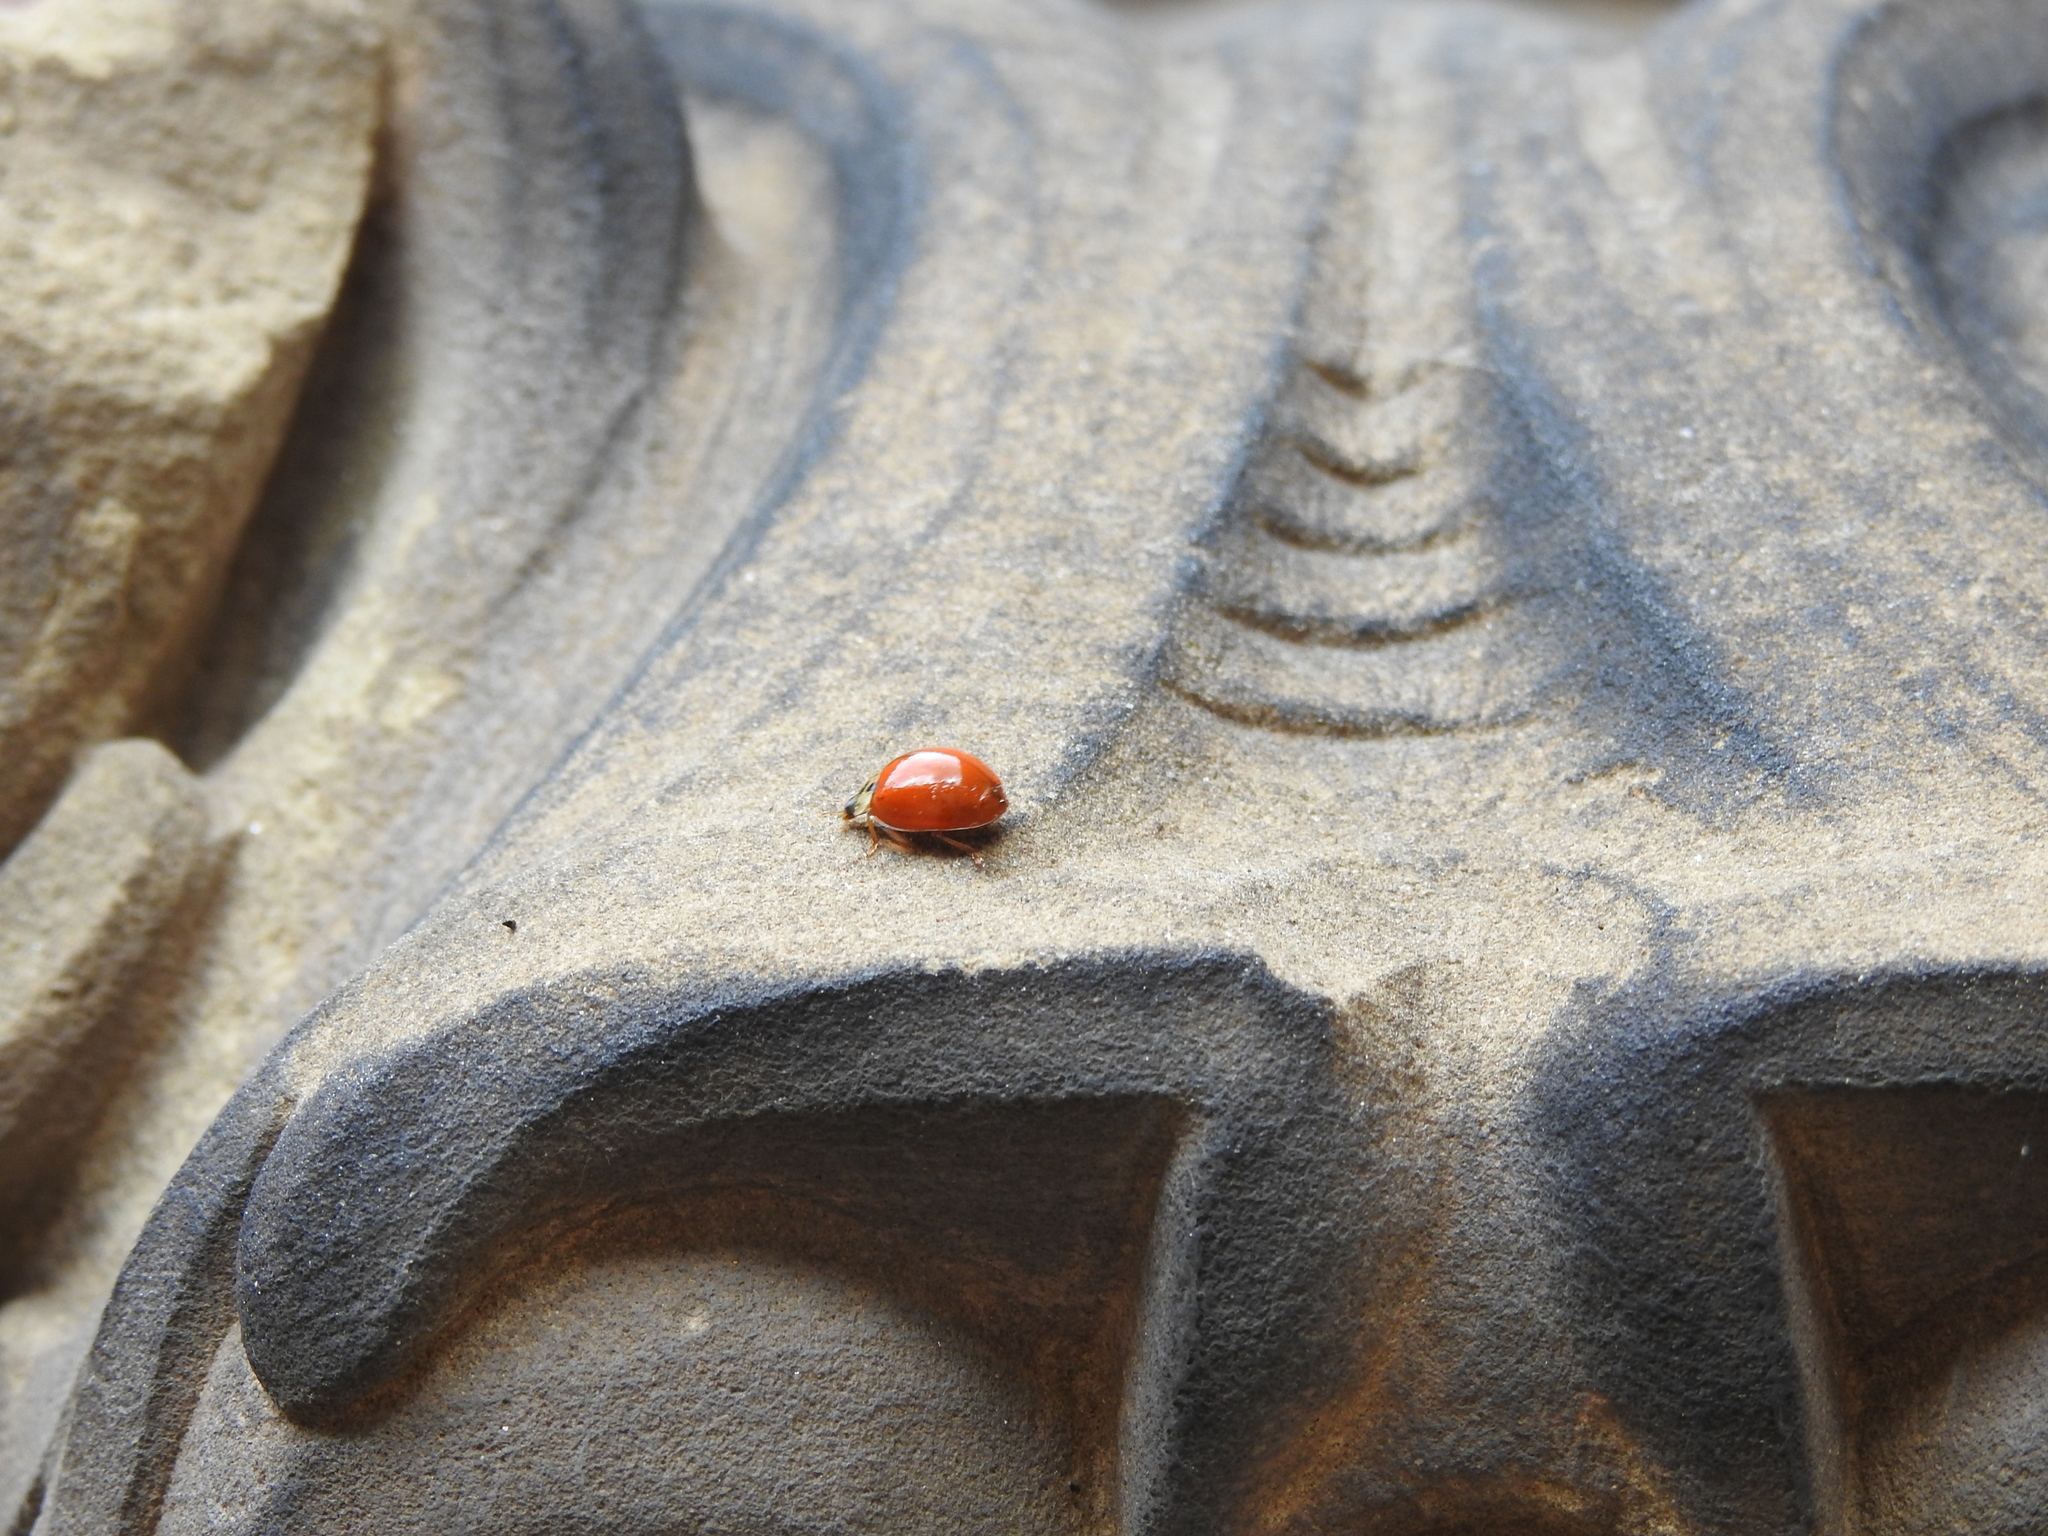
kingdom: Animalia
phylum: Arthropoda
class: Insecta
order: Coleoptera
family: Coccinellidae
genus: Harmonia
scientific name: Harmonia axyridis
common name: Harlequin ladybird
